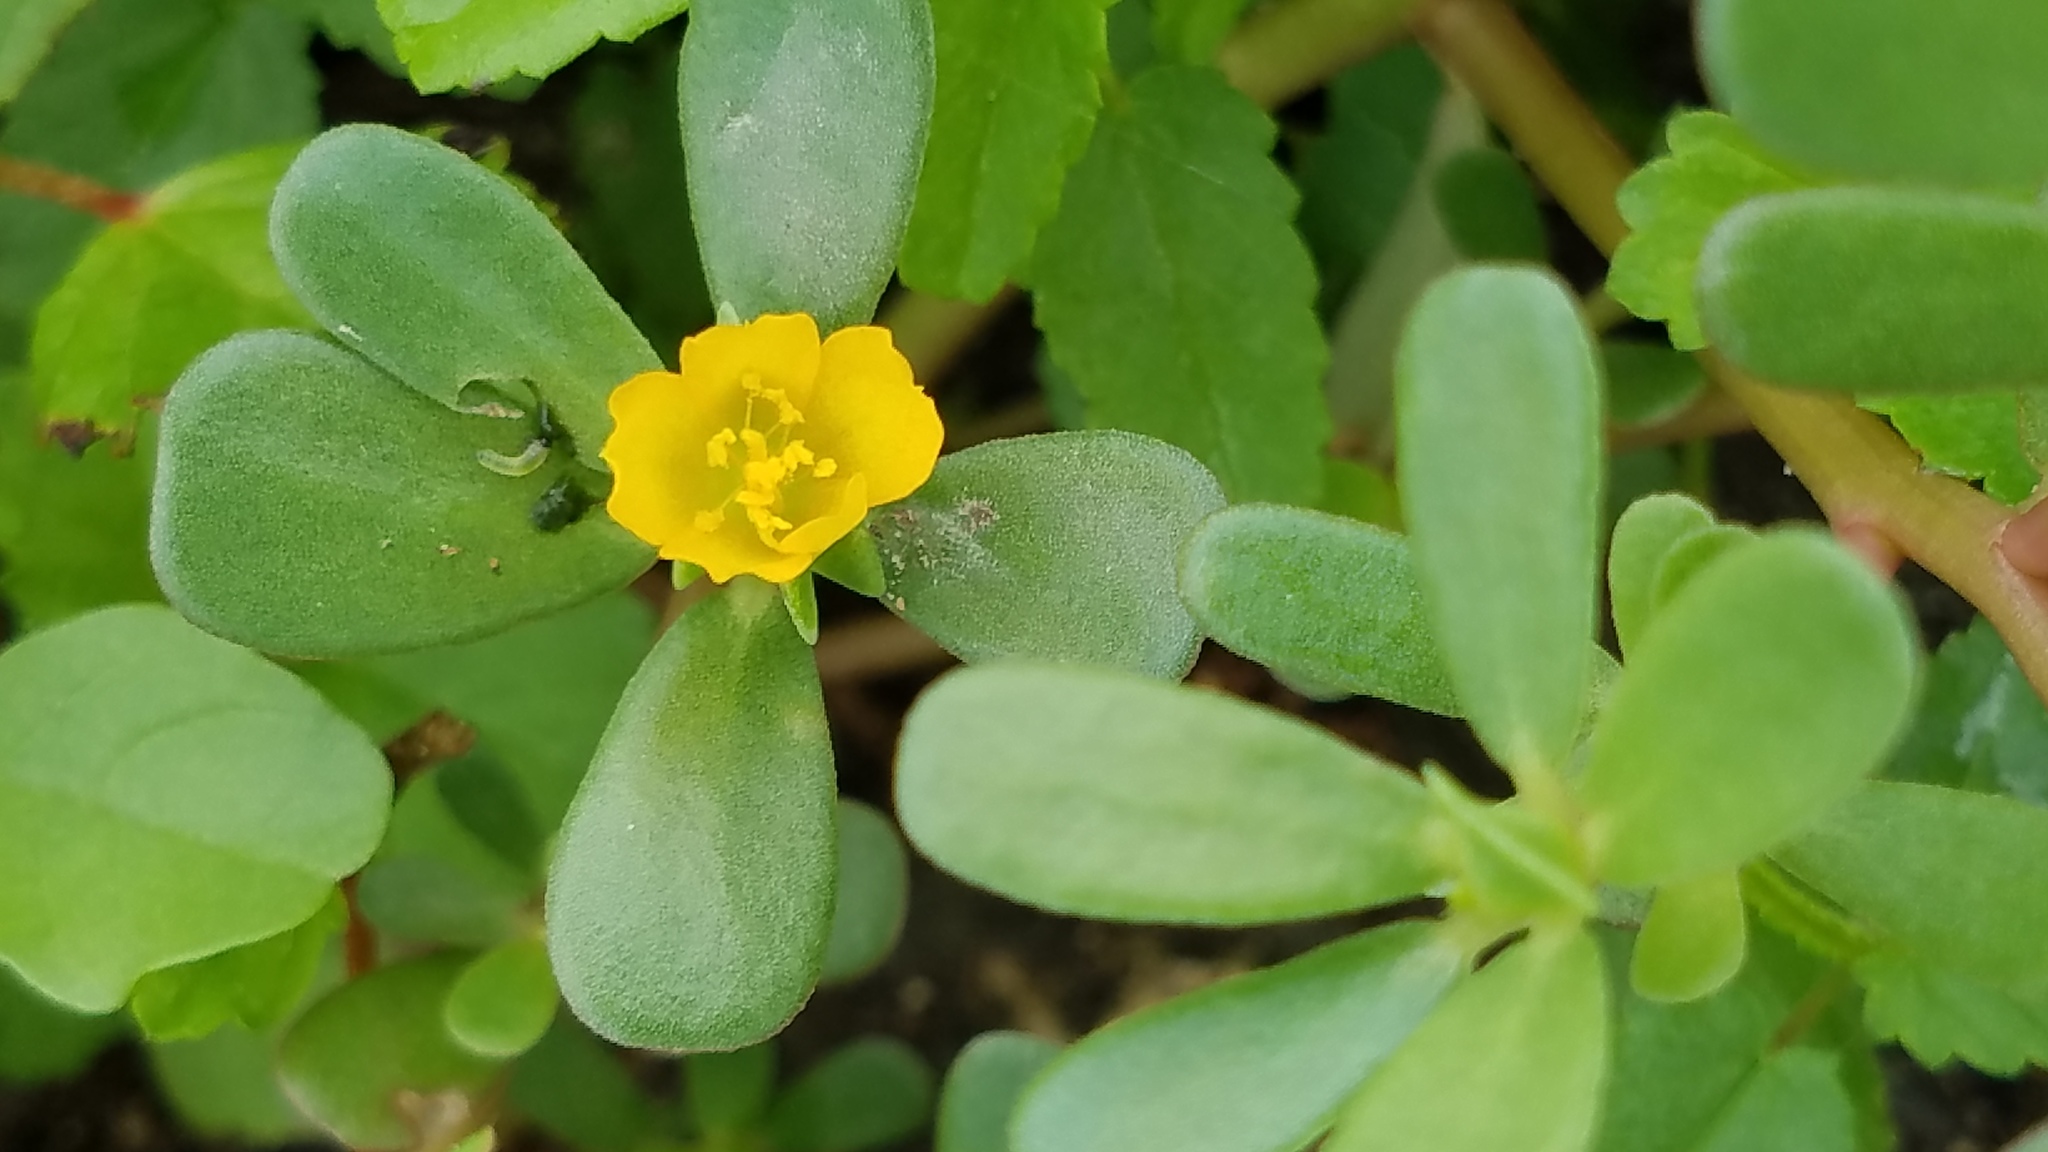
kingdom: Plantae
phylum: Tracheophyta
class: Magnoliopsida
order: Caryophyllales
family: Portulacaceae
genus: Portulaca
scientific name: Portulaca oleracea
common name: Common purslane
